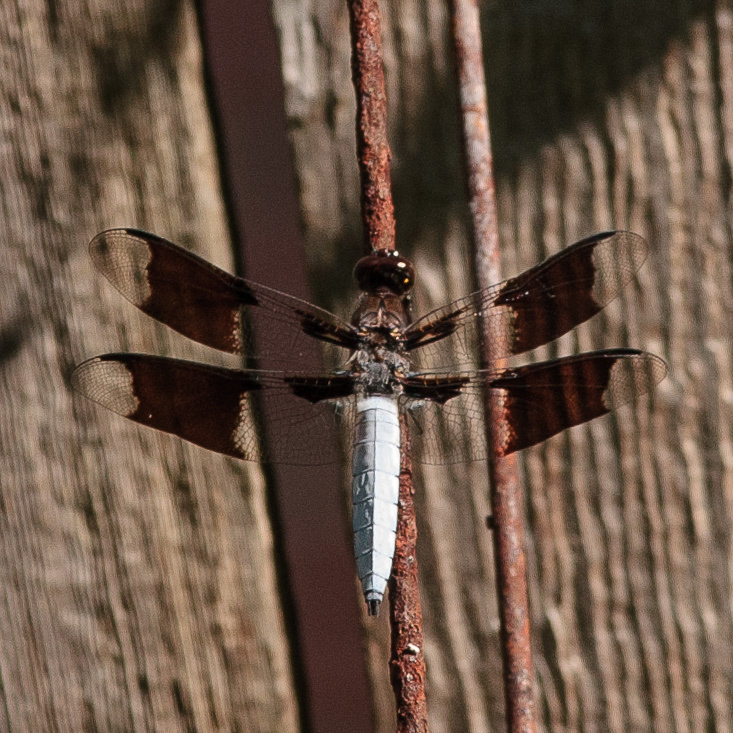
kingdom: Animalia
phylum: Arthropoda
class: Insecta
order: Odonata
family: Libellulidae
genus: Plathemis
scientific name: Plathemis lydia
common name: Common whitetail
